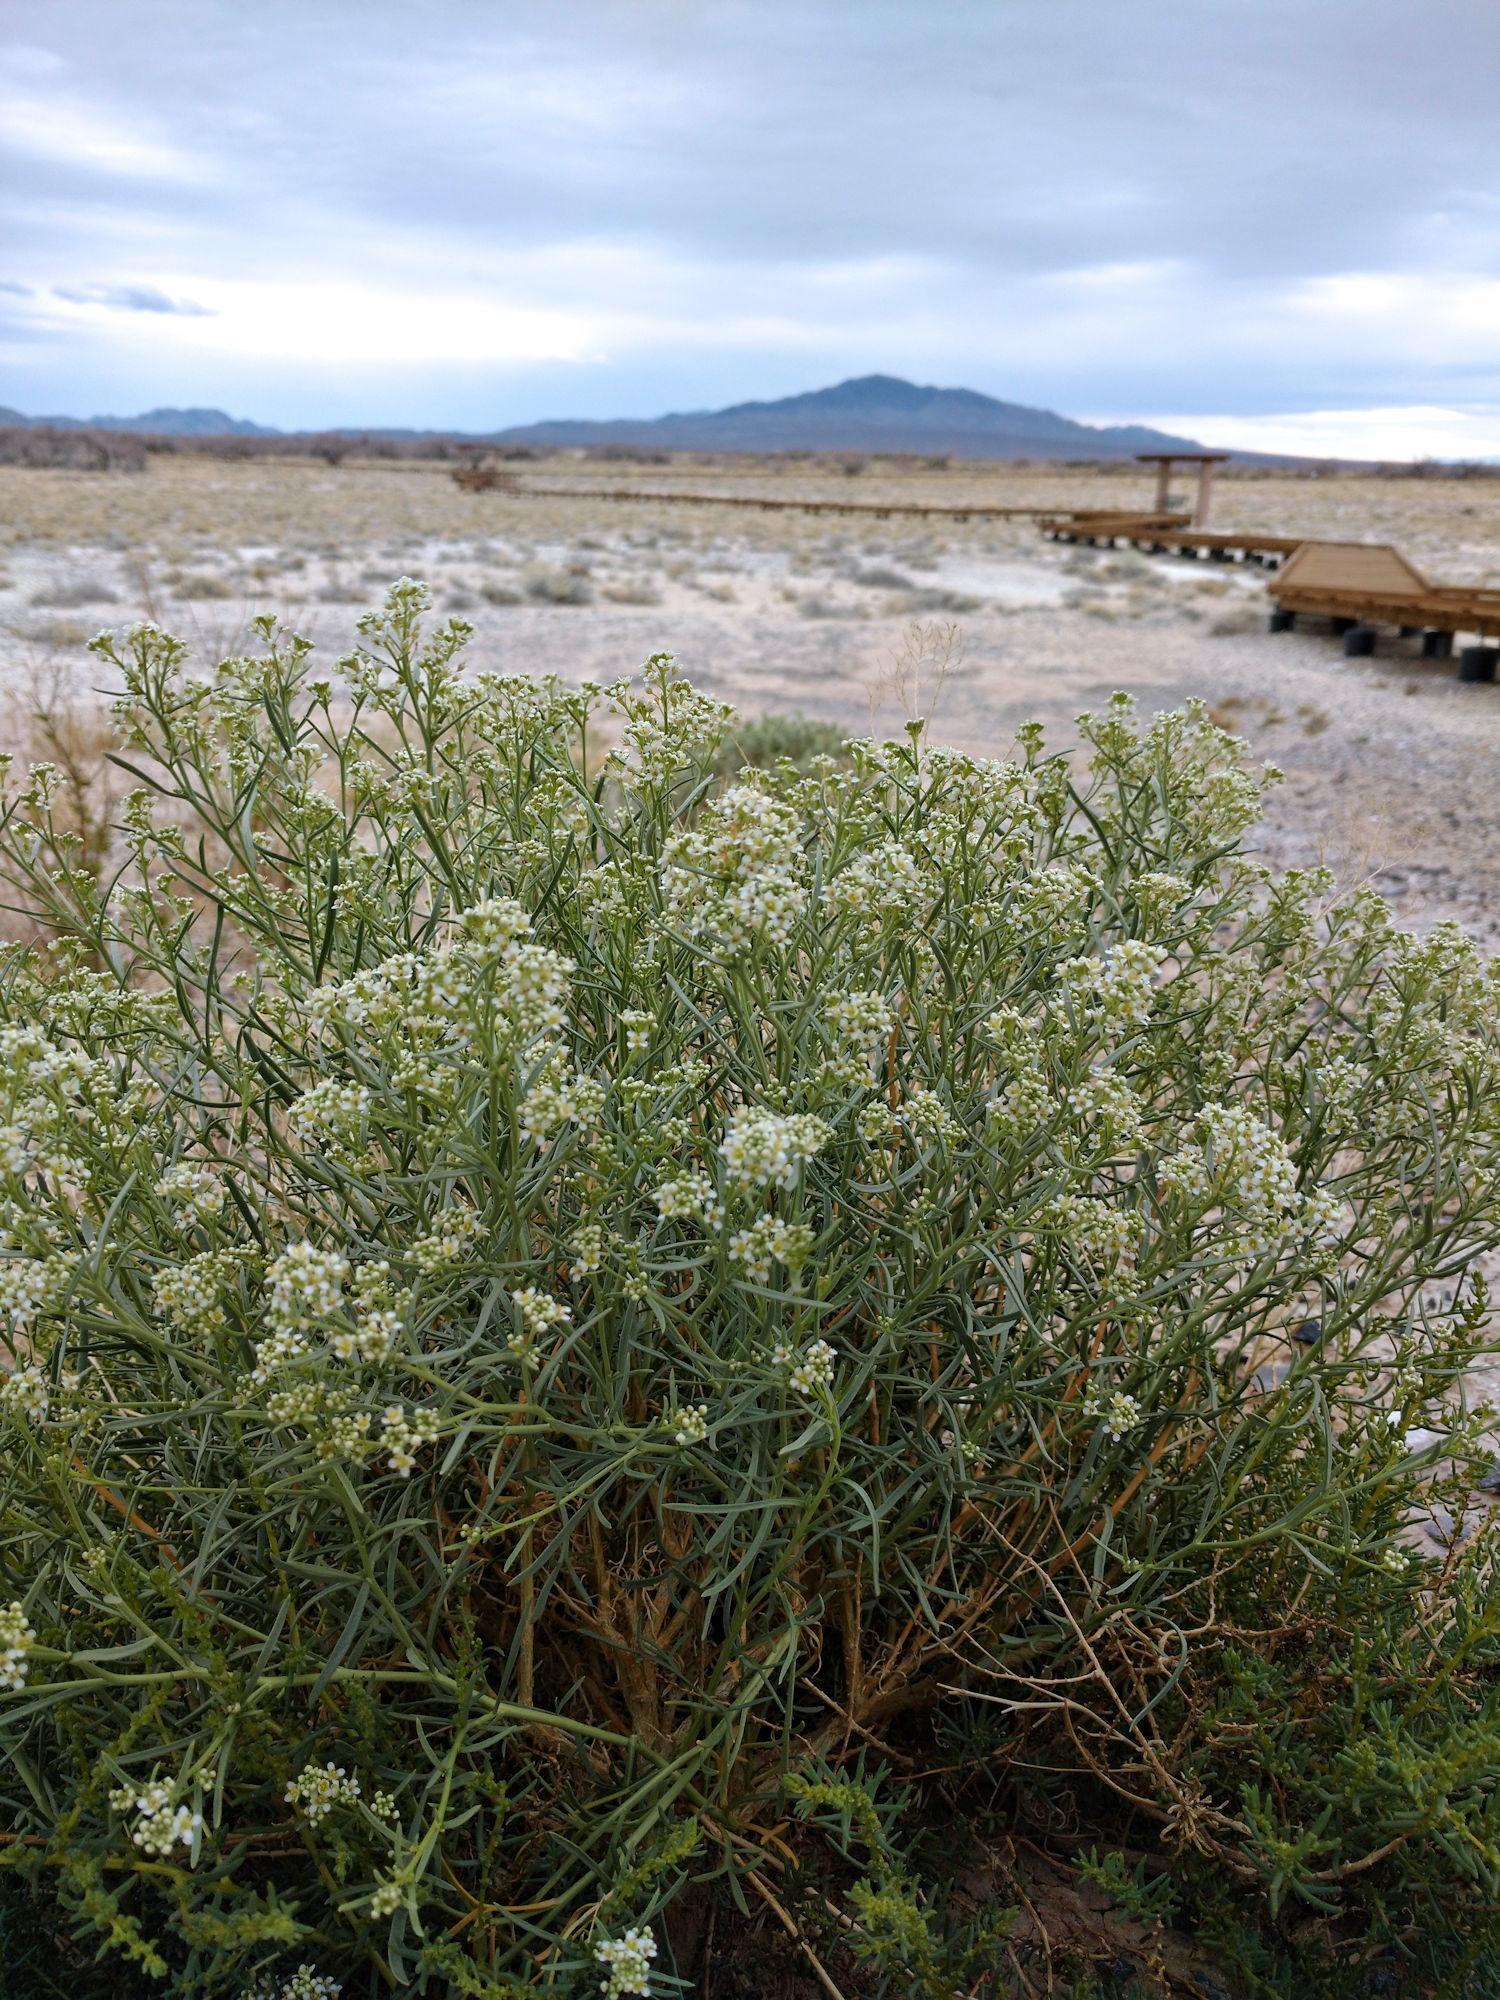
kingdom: Plantae
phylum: Tracheophyta
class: Magnoliopsida
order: Brassicales
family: Brassicaceae
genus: Lepidium
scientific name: Lepidium fremontii
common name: Fremont's pepperwort
